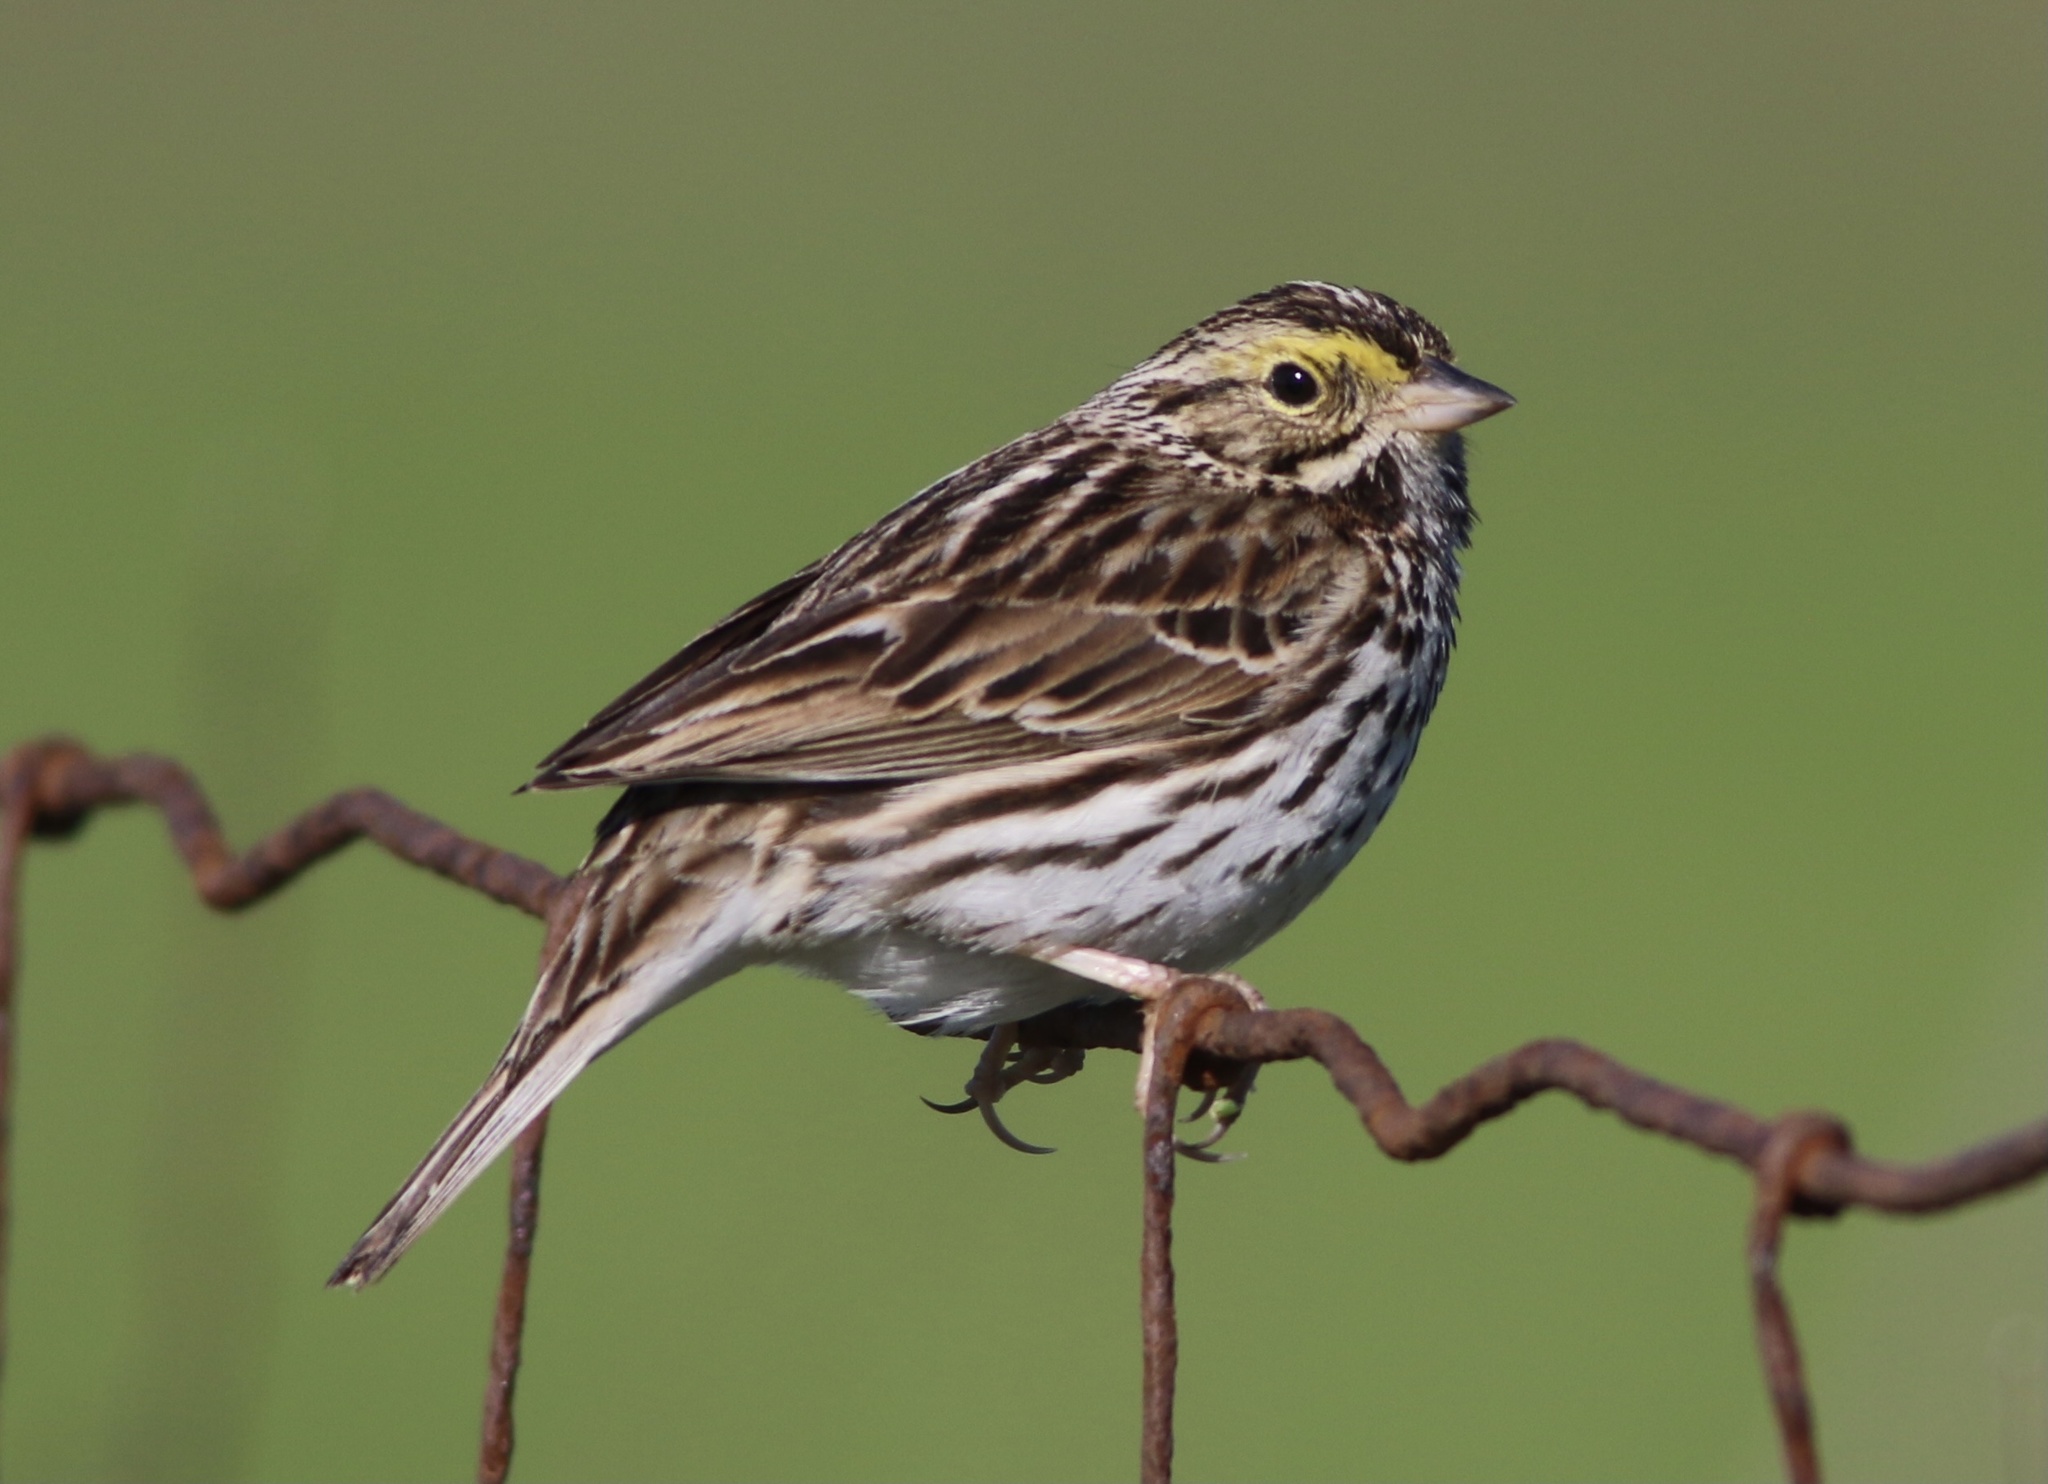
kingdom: Animalia
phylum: Chordata
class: Aves
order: Passeriformes
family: Passerellidae
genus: Passerculus
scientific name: Passerculus sandwichensis
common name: Savannah sparrow
